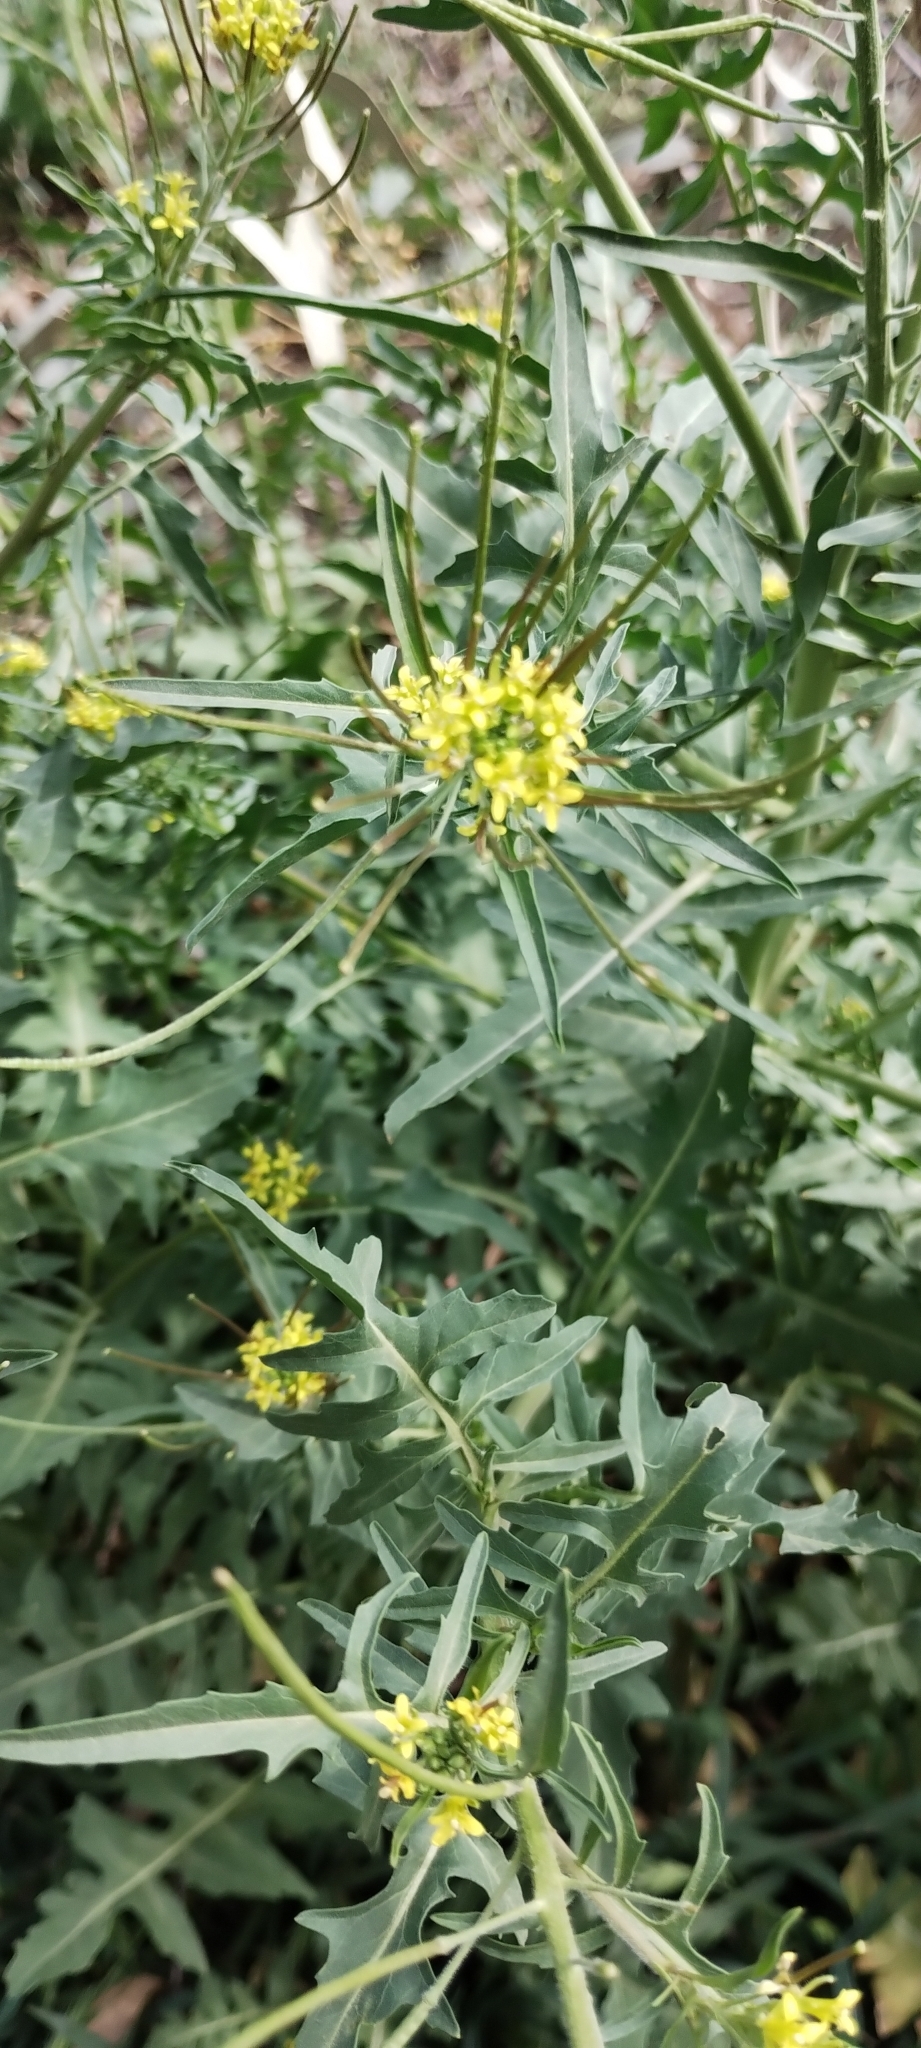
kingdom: Plantae
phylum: Tracheophyta
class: Magnoliopsida
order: Brassicales
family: Brassicaceae
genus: Sisymbrium
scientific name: Sisymbrium irio
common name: London rocket
